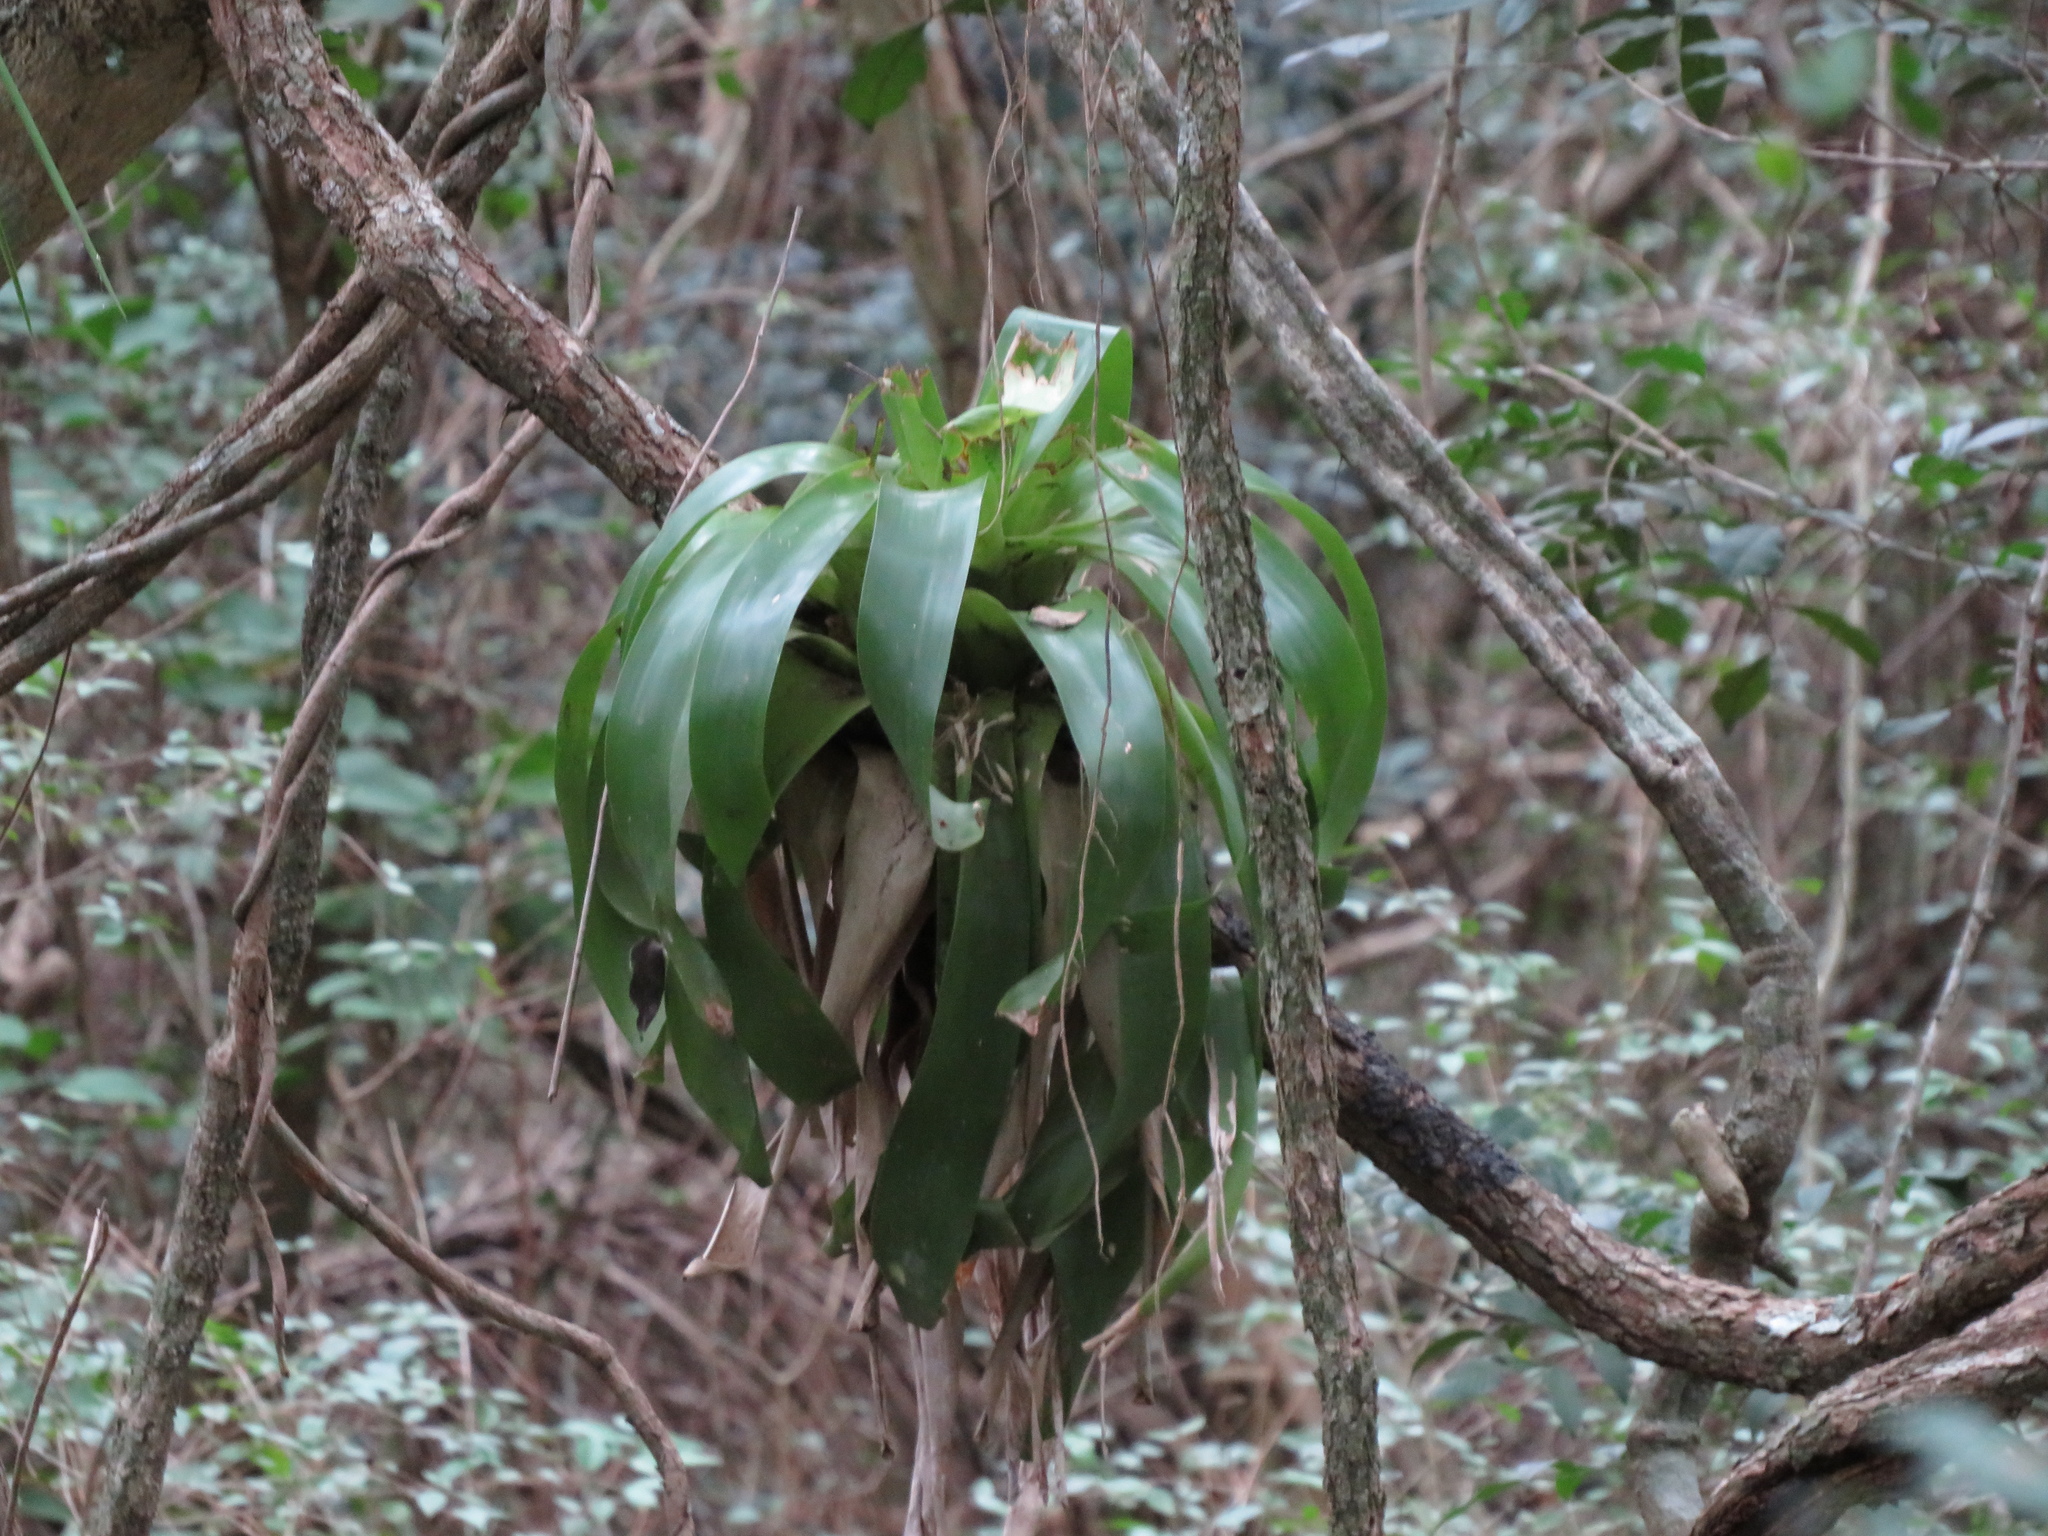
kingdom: Plantae
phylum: Tracheophyta
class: Liliopsida
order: Poales
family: Bromeliaceae
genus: Vriesea
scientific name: Vriesea friburgensis
